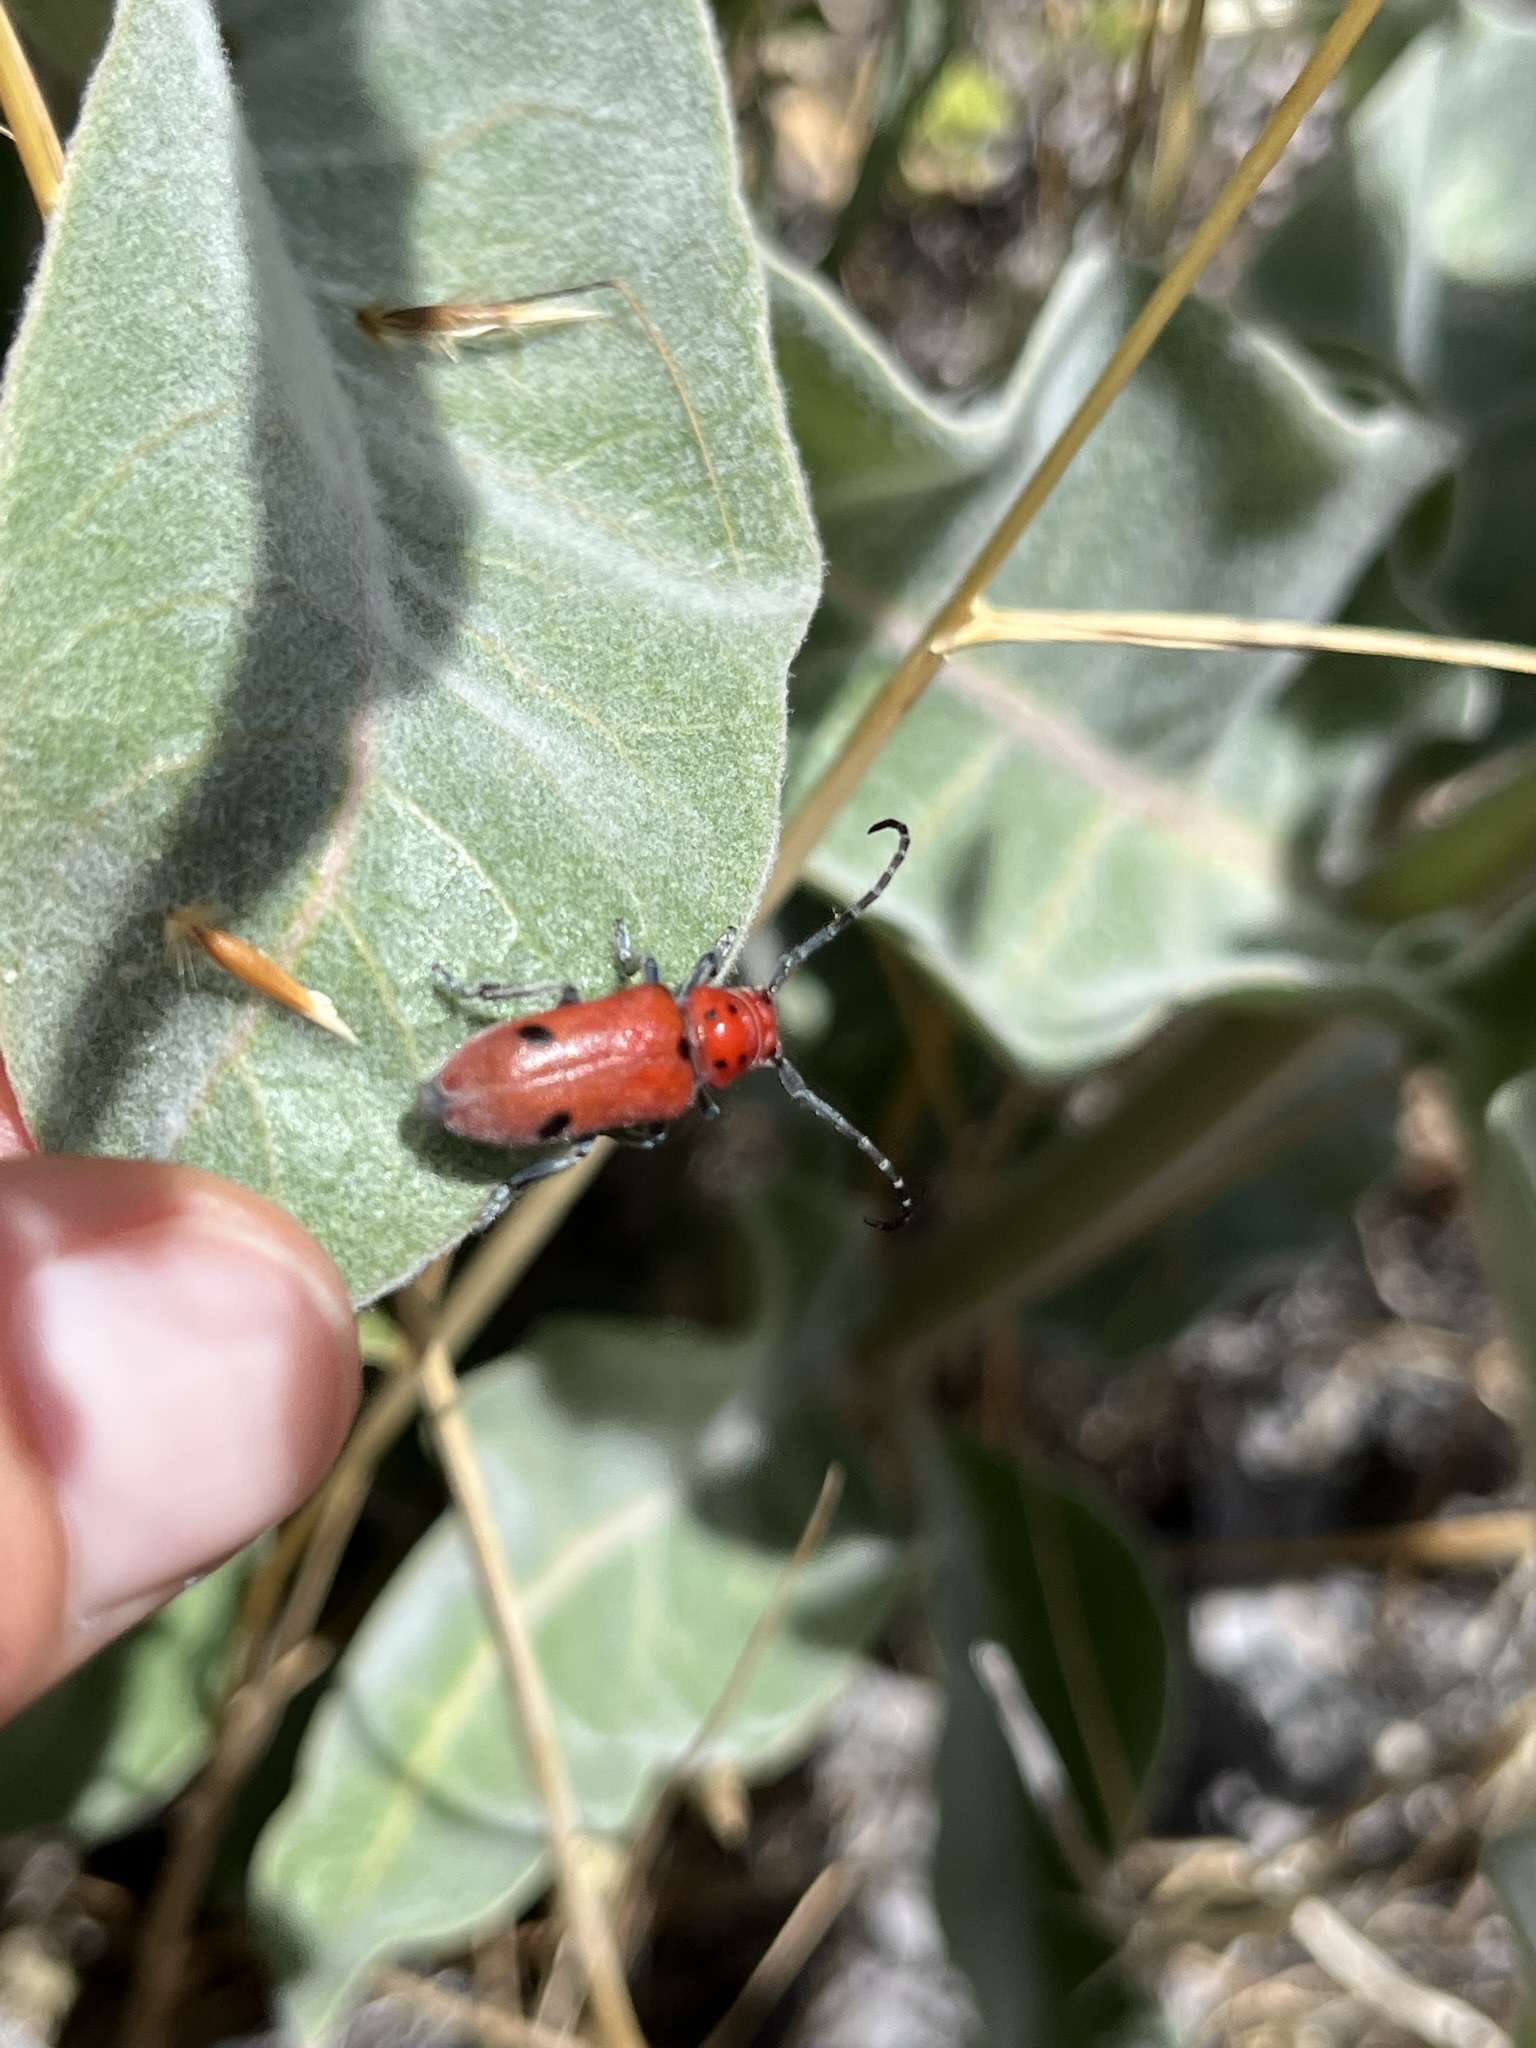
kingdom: Animalia
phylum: Arthropoda
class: Insecta
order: Coleoptera
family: Cerambycidae
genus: Tetraopes
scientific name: Tetraopes basalis
